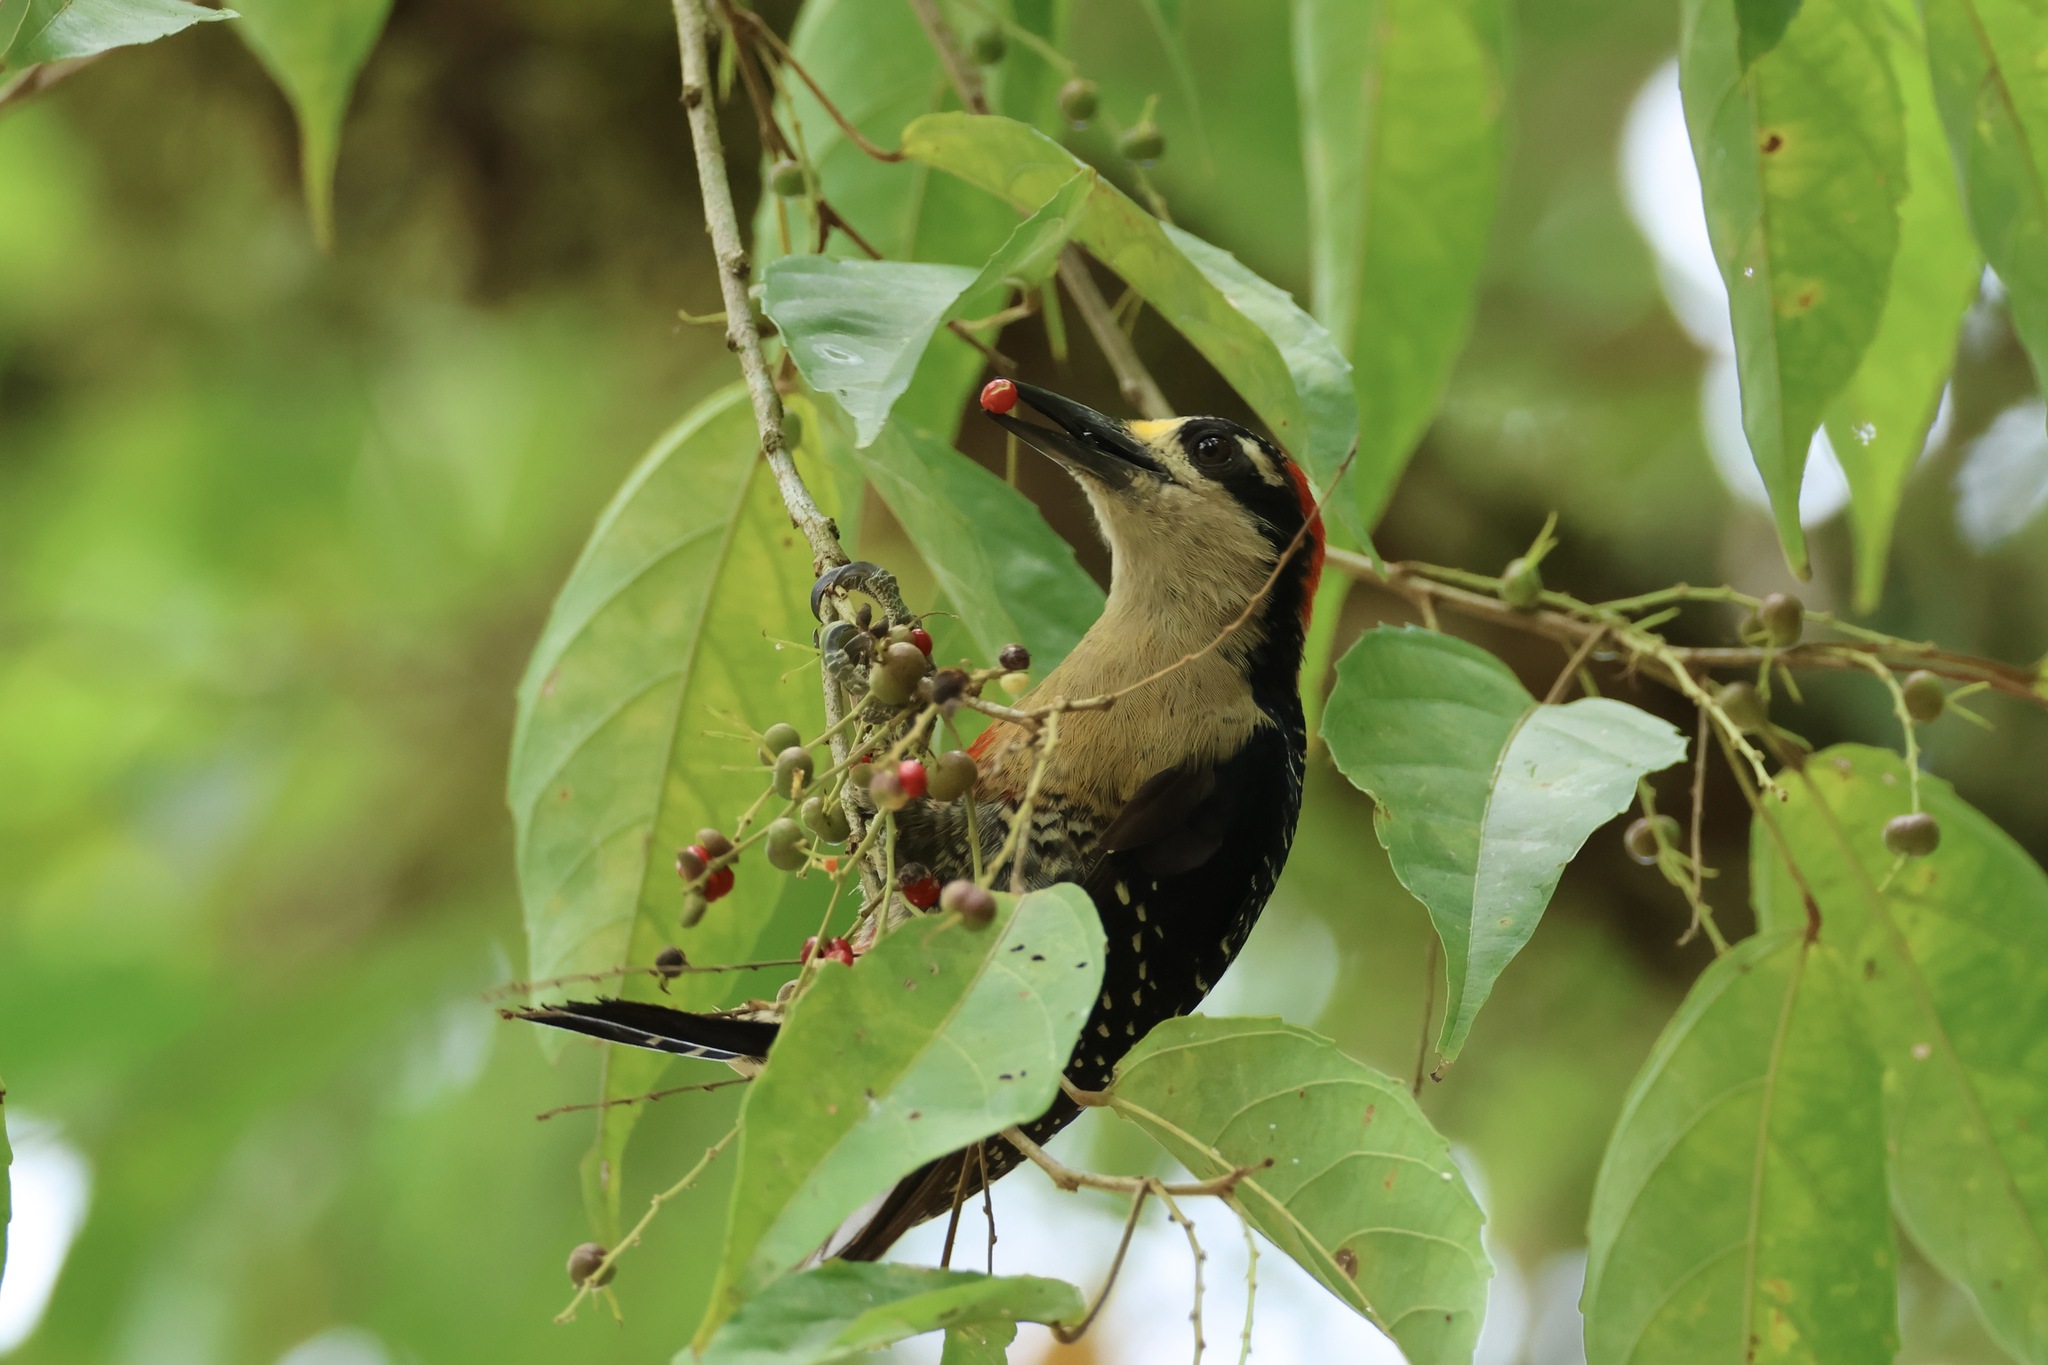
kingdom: Animalia
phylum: Chordata
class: Aves
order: Piciformes
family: Picidae
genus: Melanerpes
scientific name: Melanerpes pucherani
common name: Black-cheeked woodpecker
